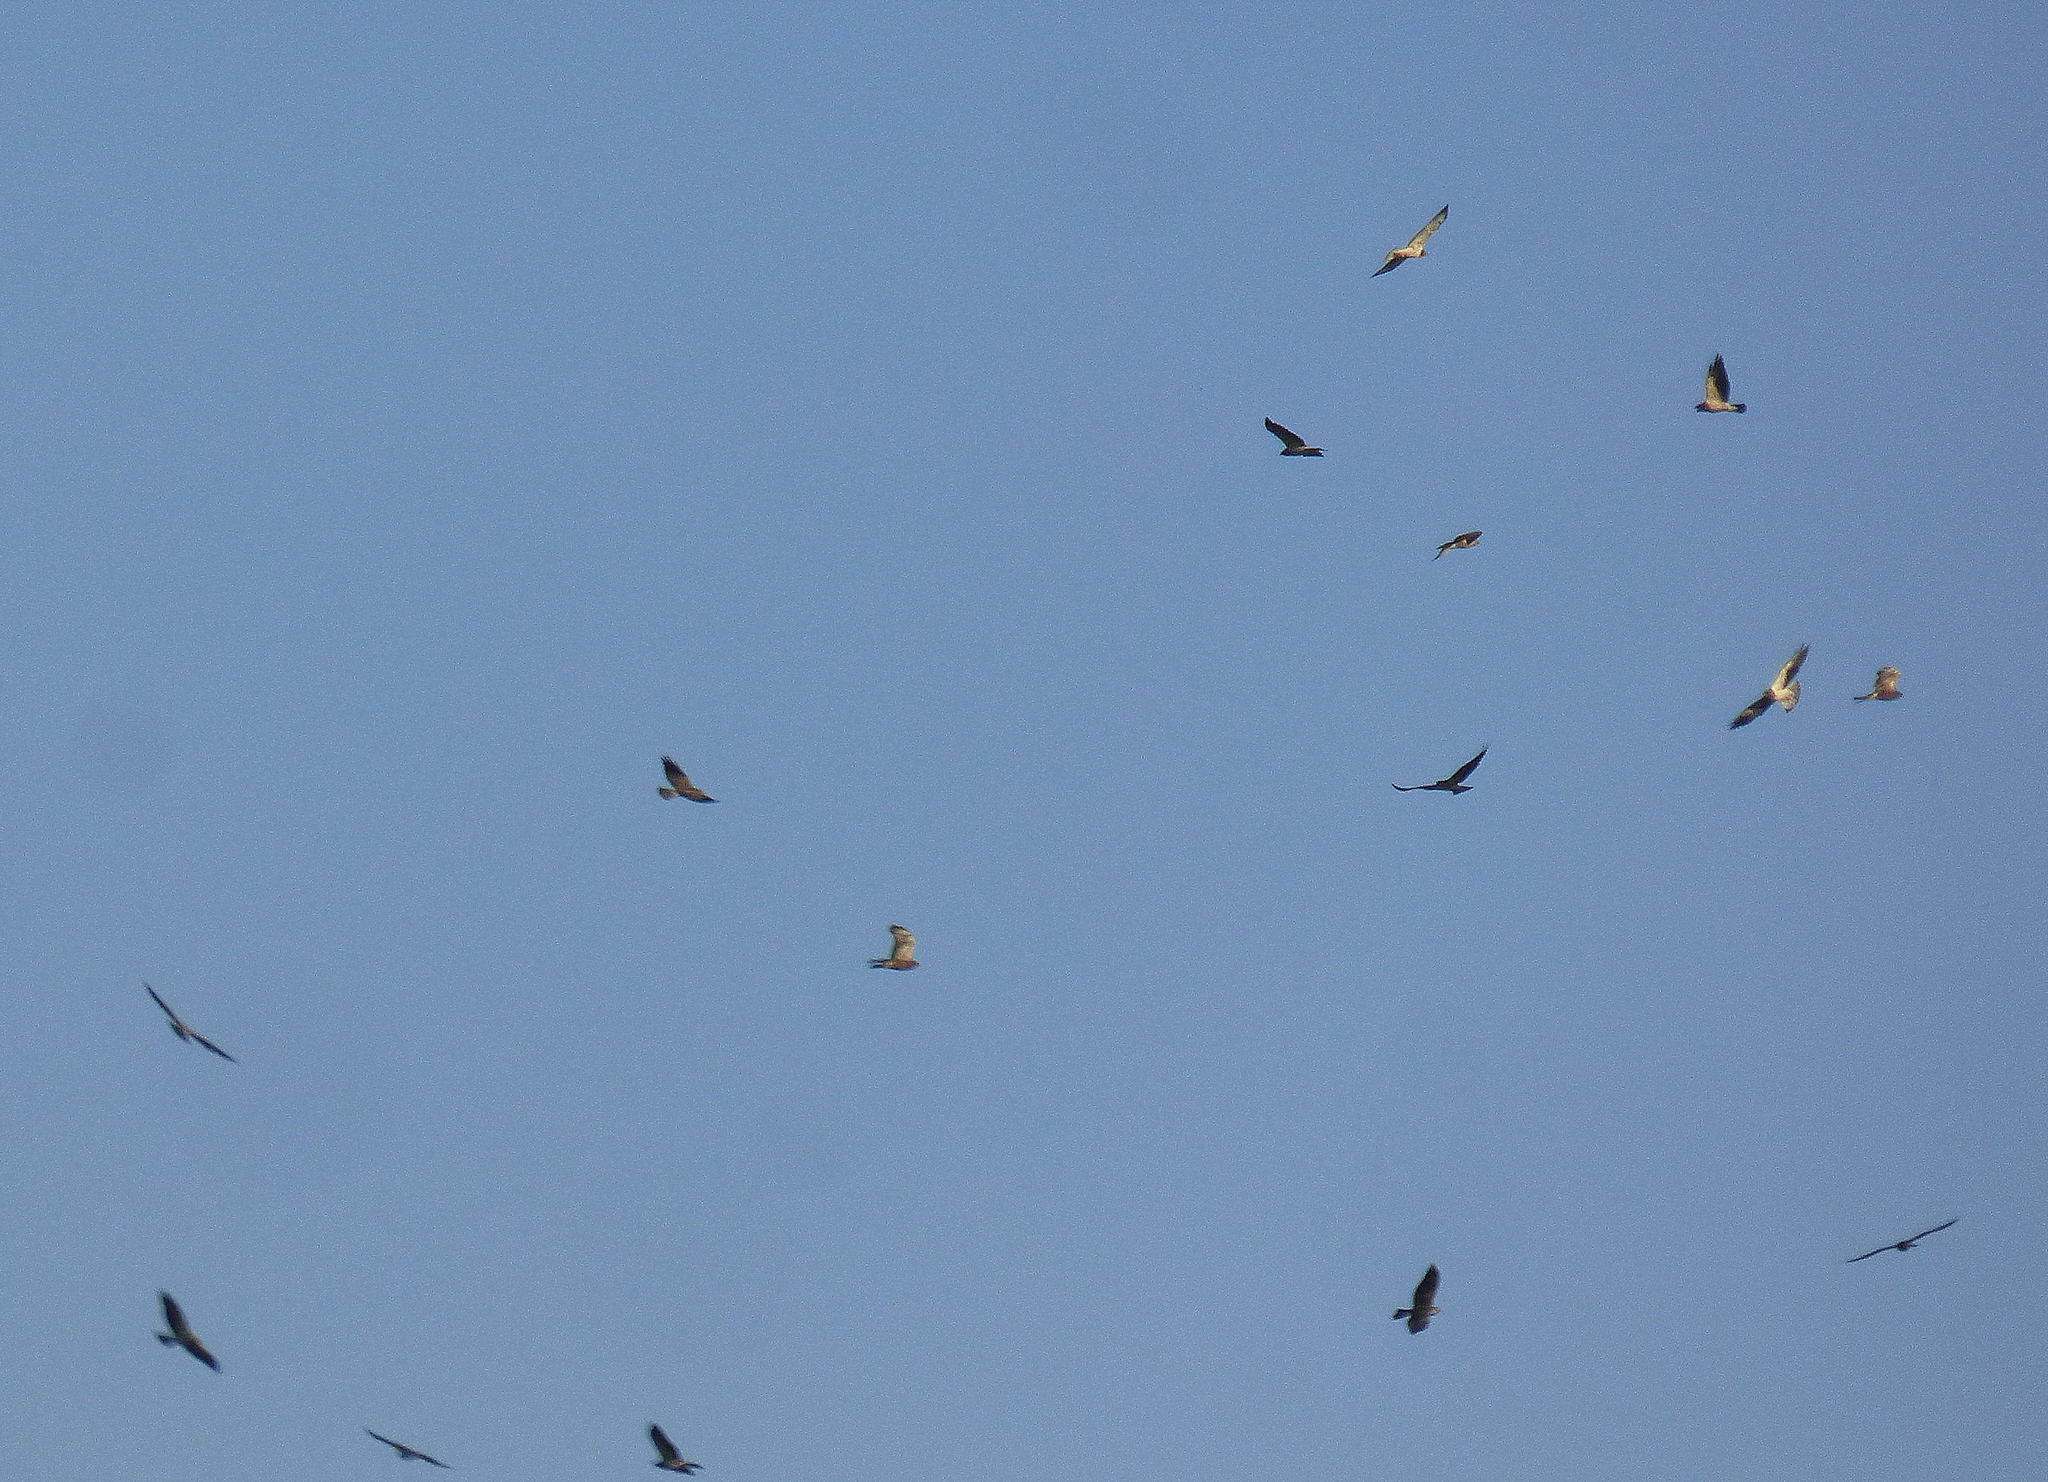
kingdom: Animalia
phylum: Chordata
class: Aves
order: Accipitriformes
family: Accipitridae
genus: Buteo
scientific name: Buteo swainsoni
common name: Swainson's hawk
